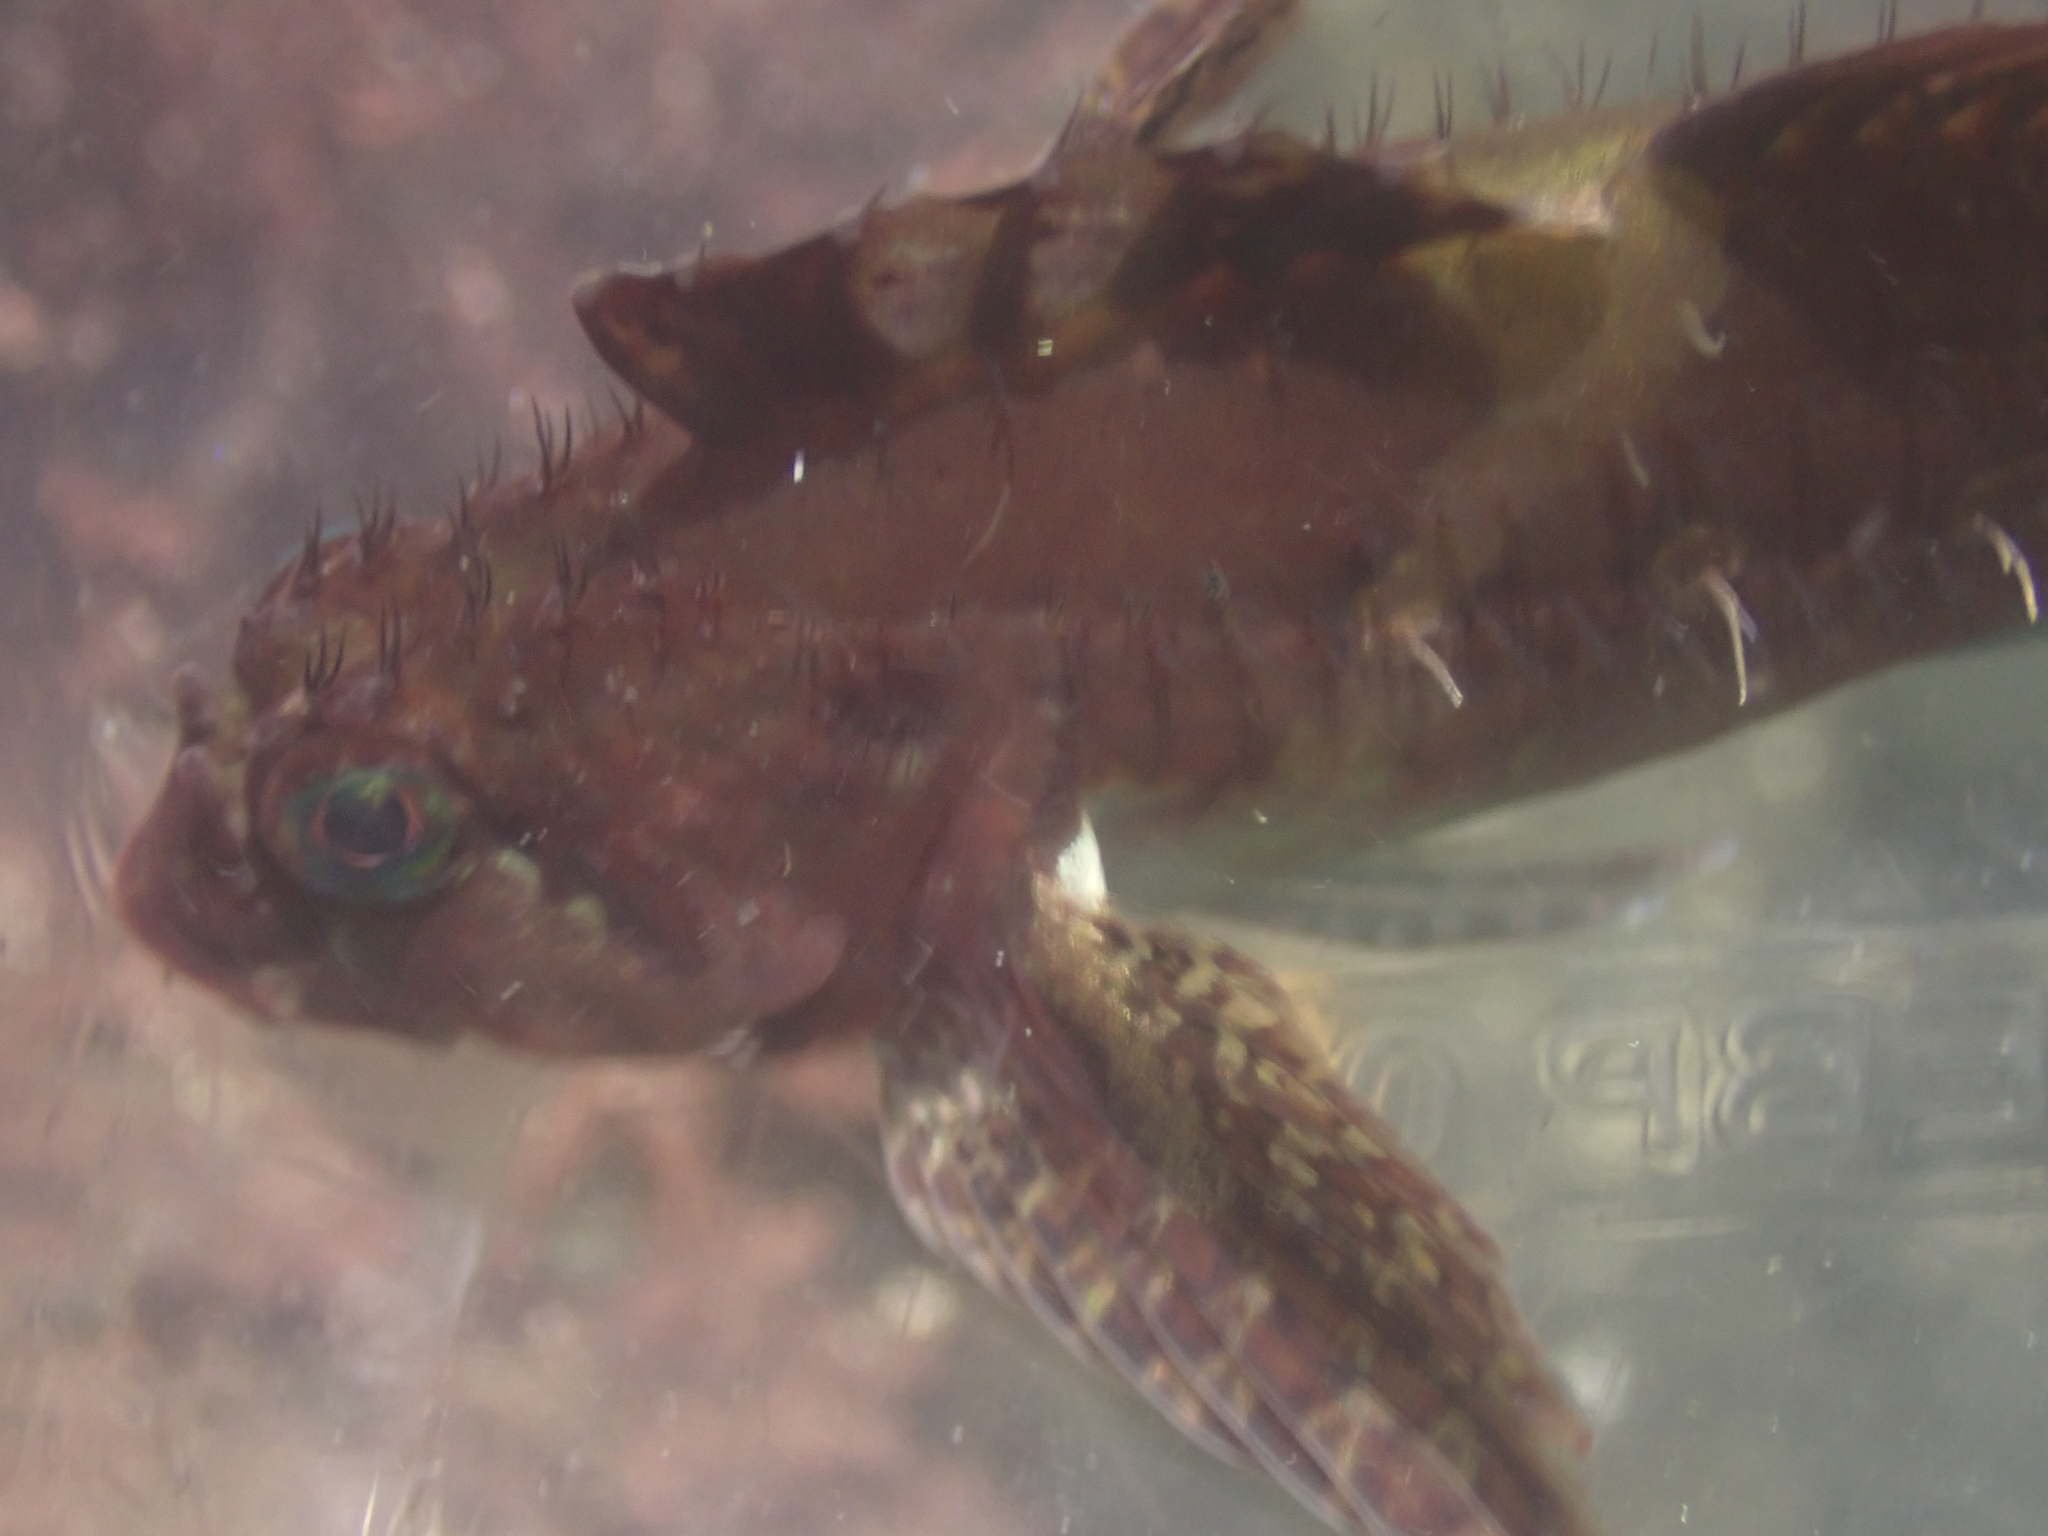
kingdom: Animalia
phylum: Chordata
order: Scorpaeniformes
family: Cottidae
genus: Oligocottus
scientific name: Oligocottus snyderi
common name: Fluffy sculpin
